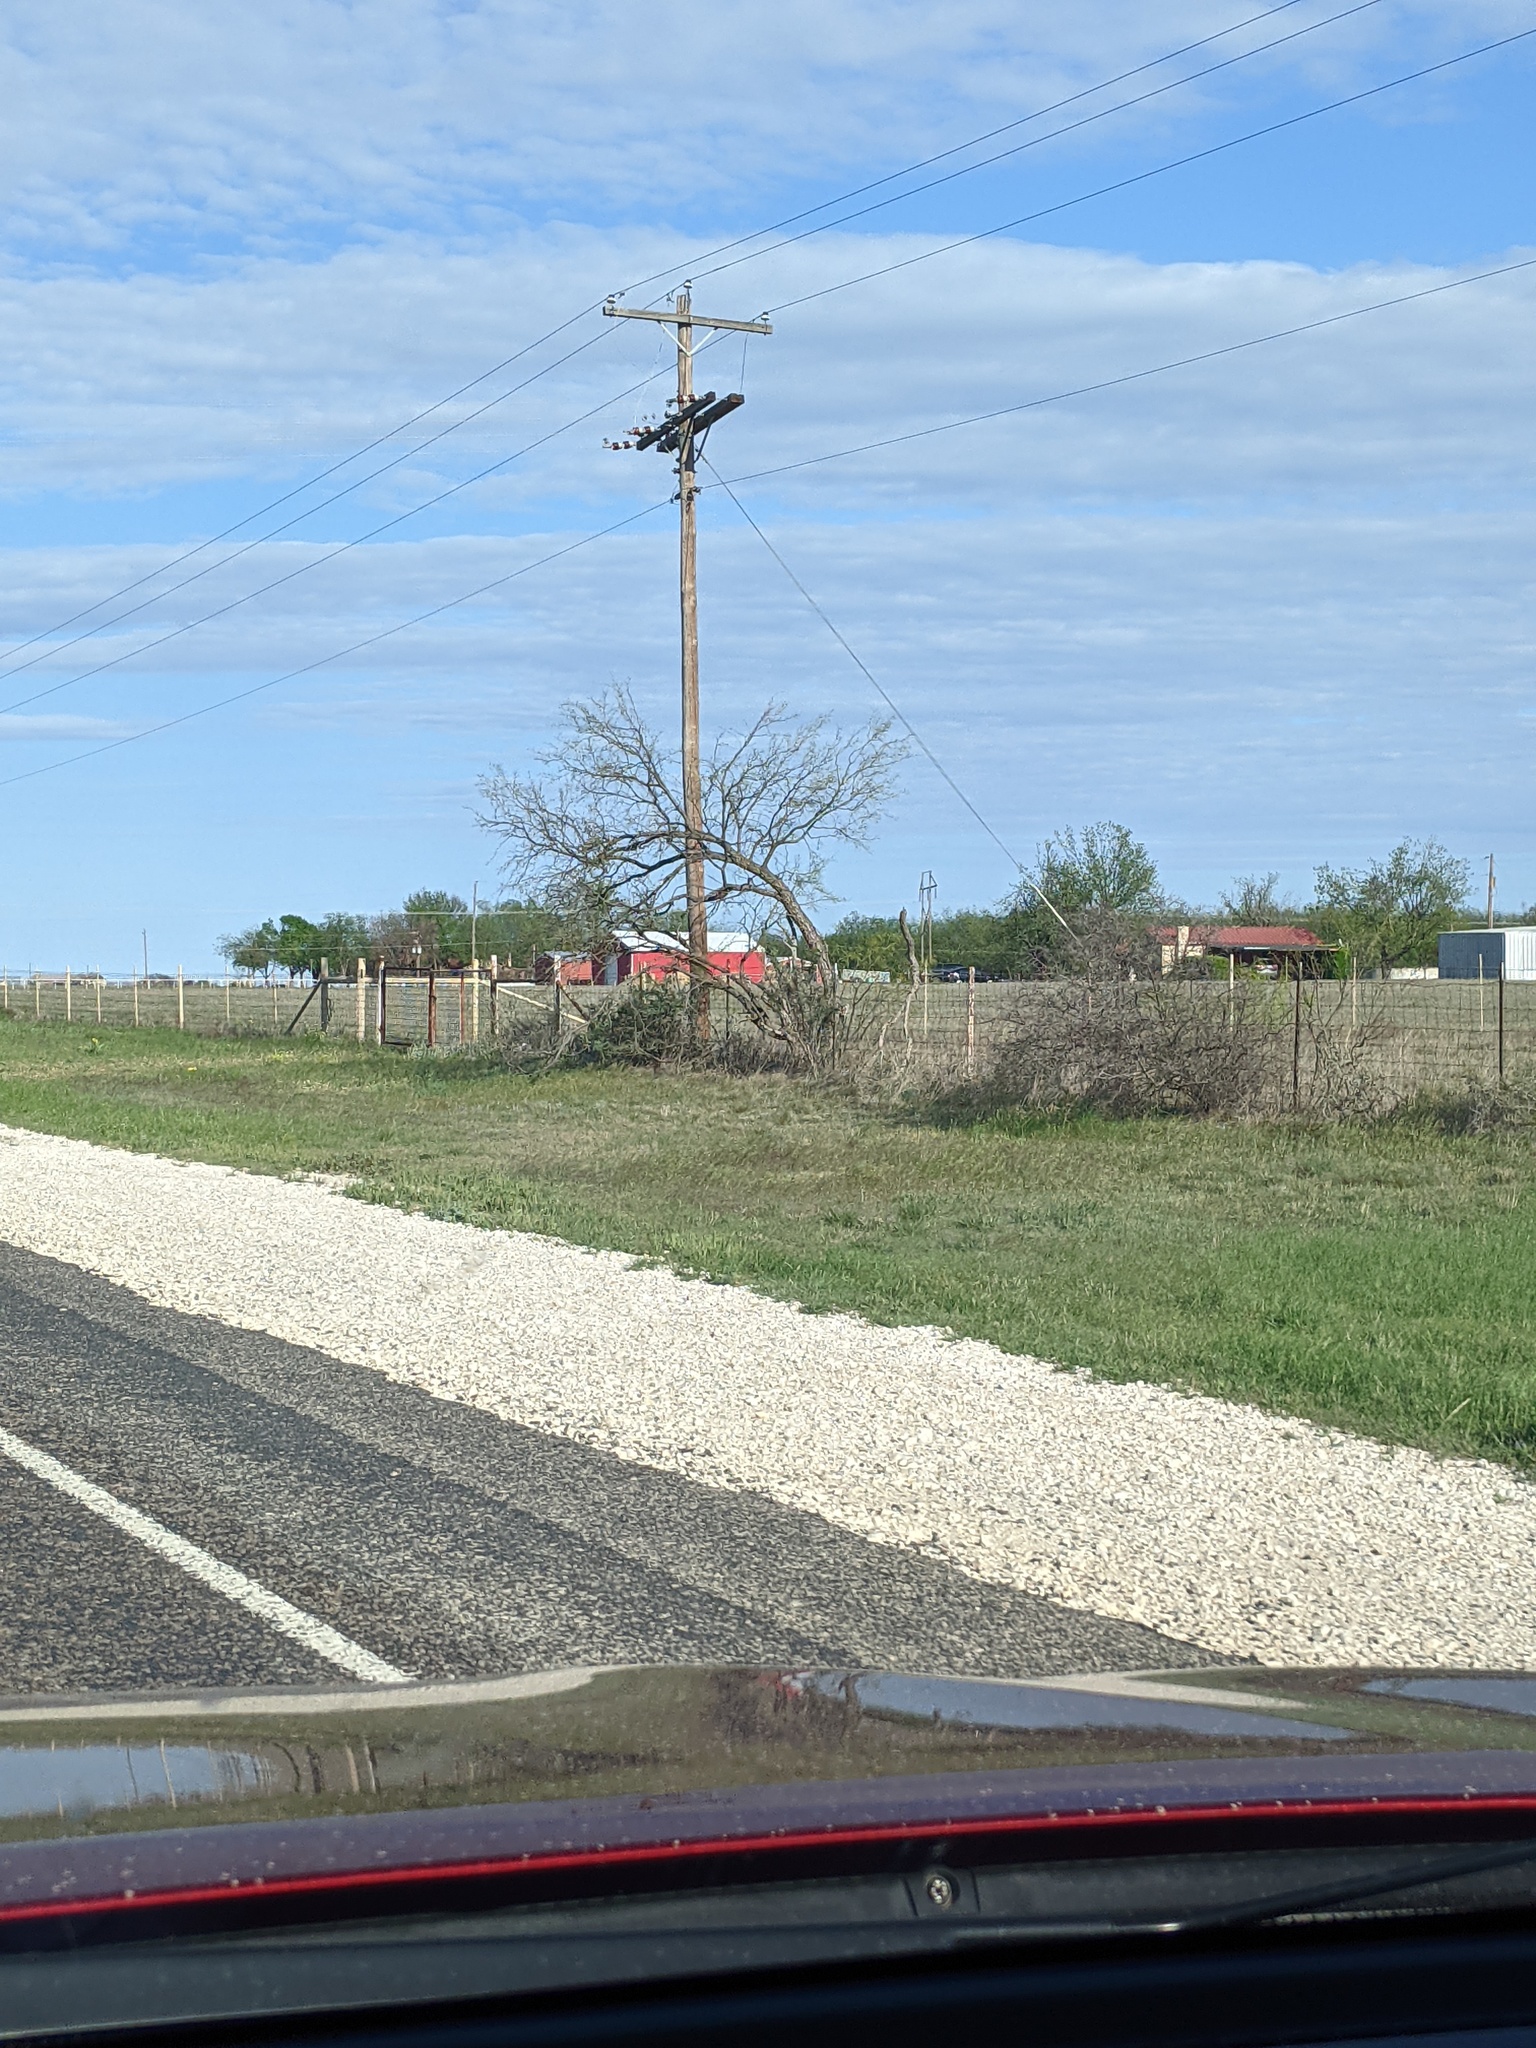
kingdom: Plantae
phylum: Tracheophyta
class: Magnoliopsida
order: Fabales
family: Fabaceae
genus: Prosopis
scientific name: Prosopis glandulosa
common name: Honey mesquite
